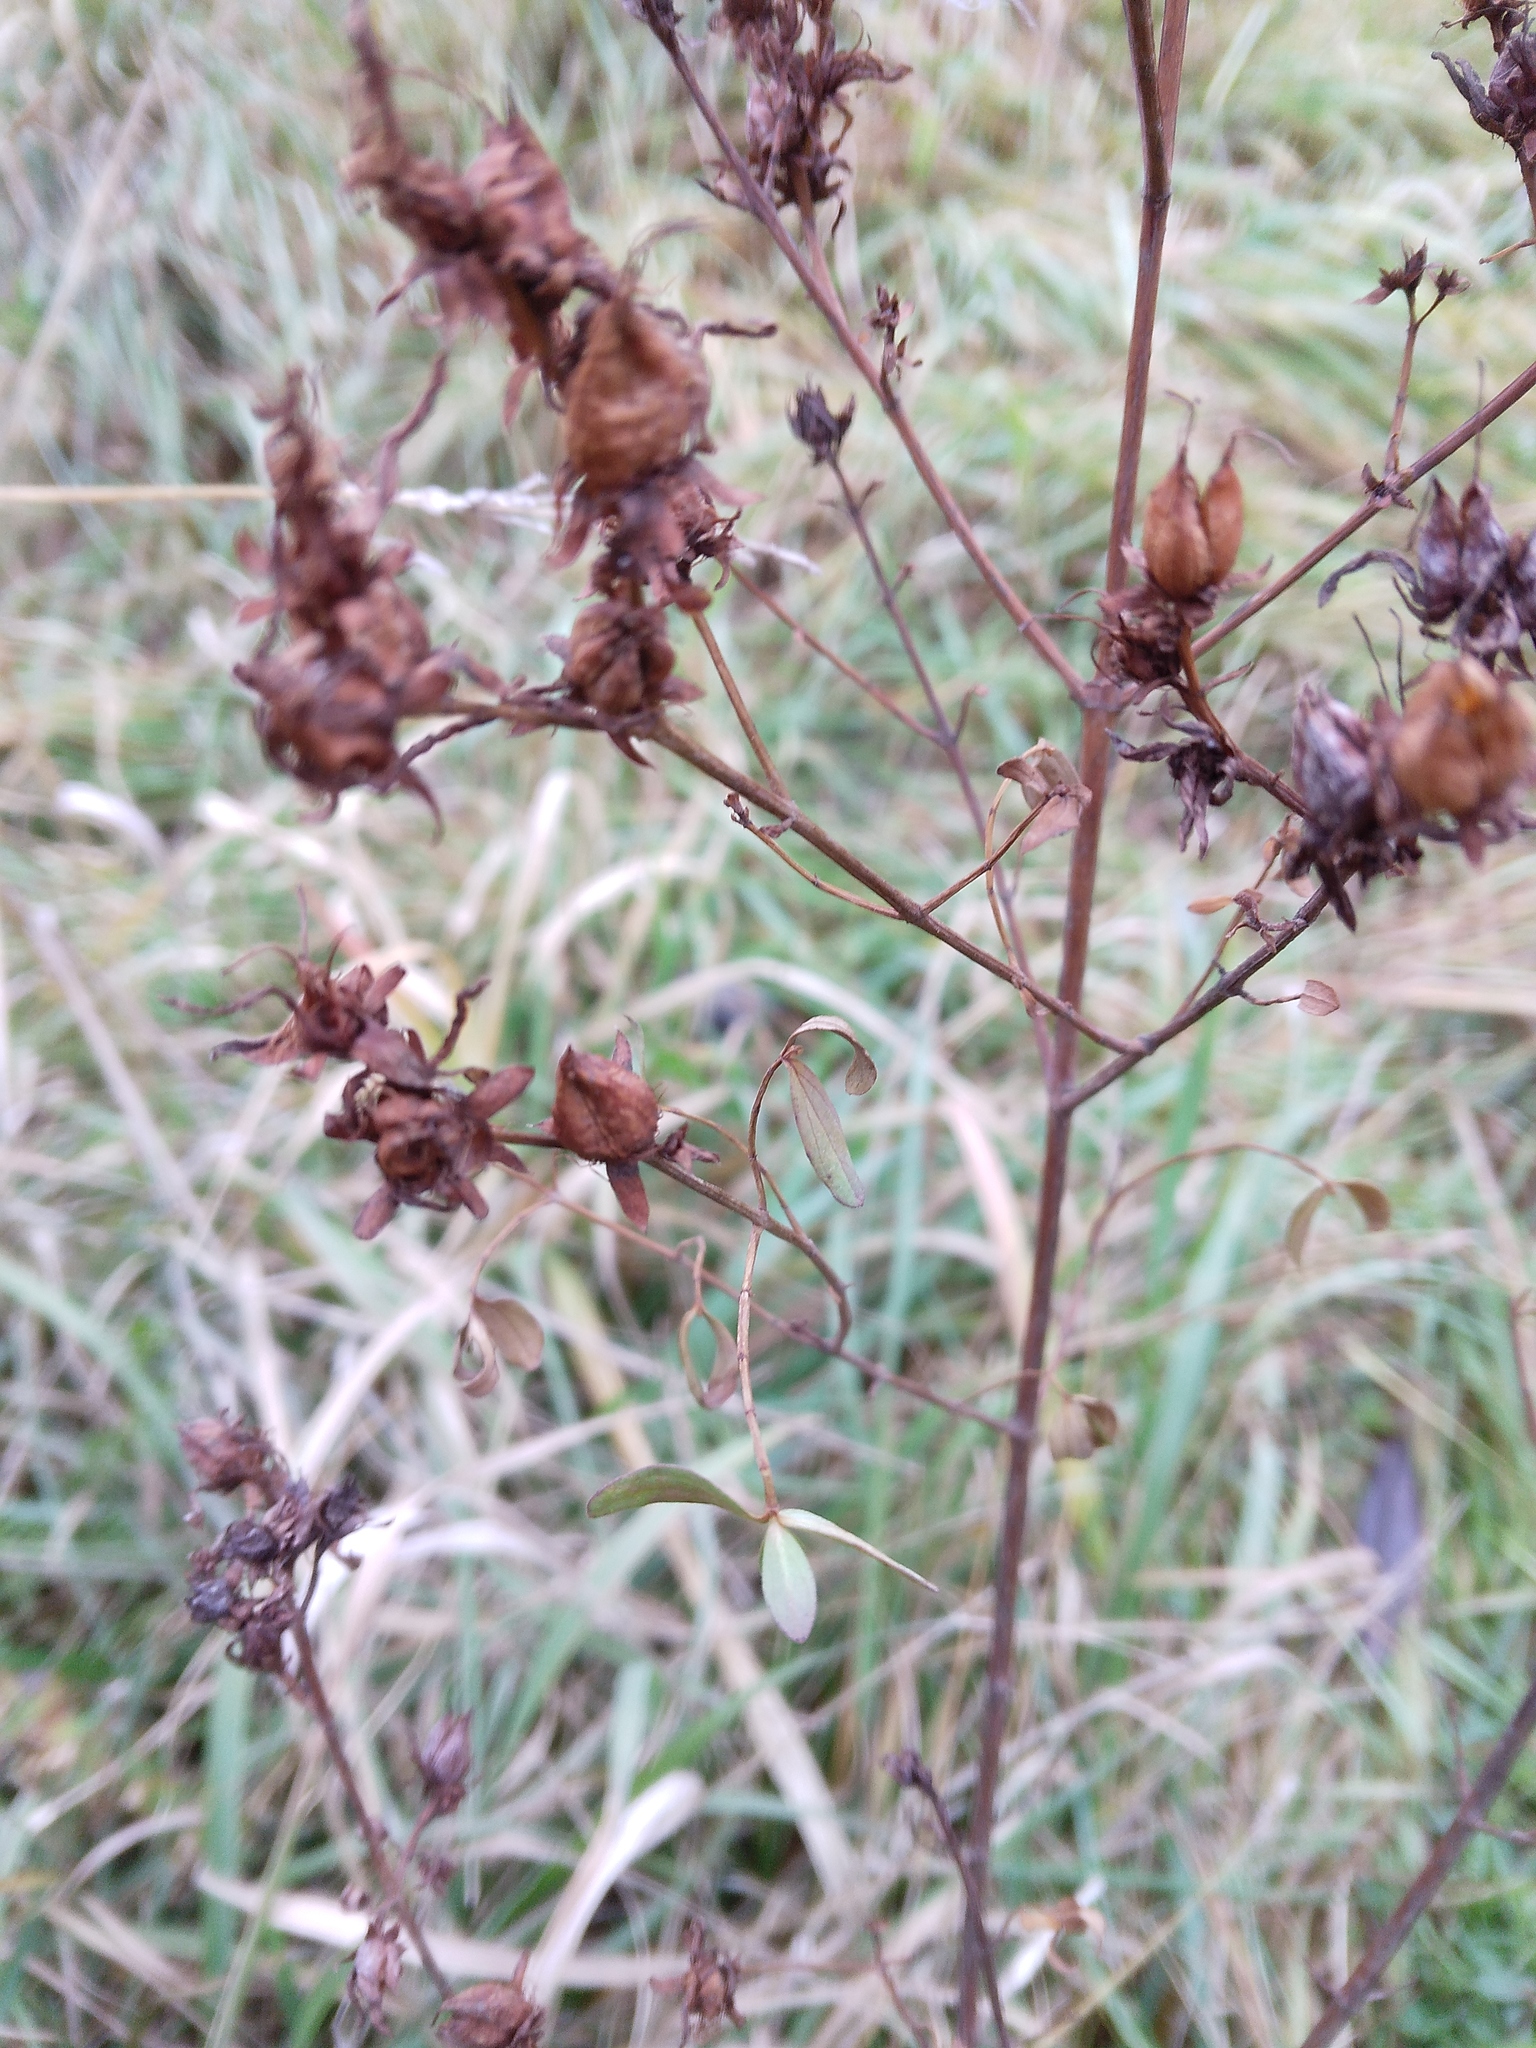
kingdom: Plantae
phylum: Tracheophyta
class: Magnoliopsida
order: Malpighiales
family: Hypericaceae
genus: Hypericum
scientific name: Hypericum perforatum
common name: Common st. johnswort
